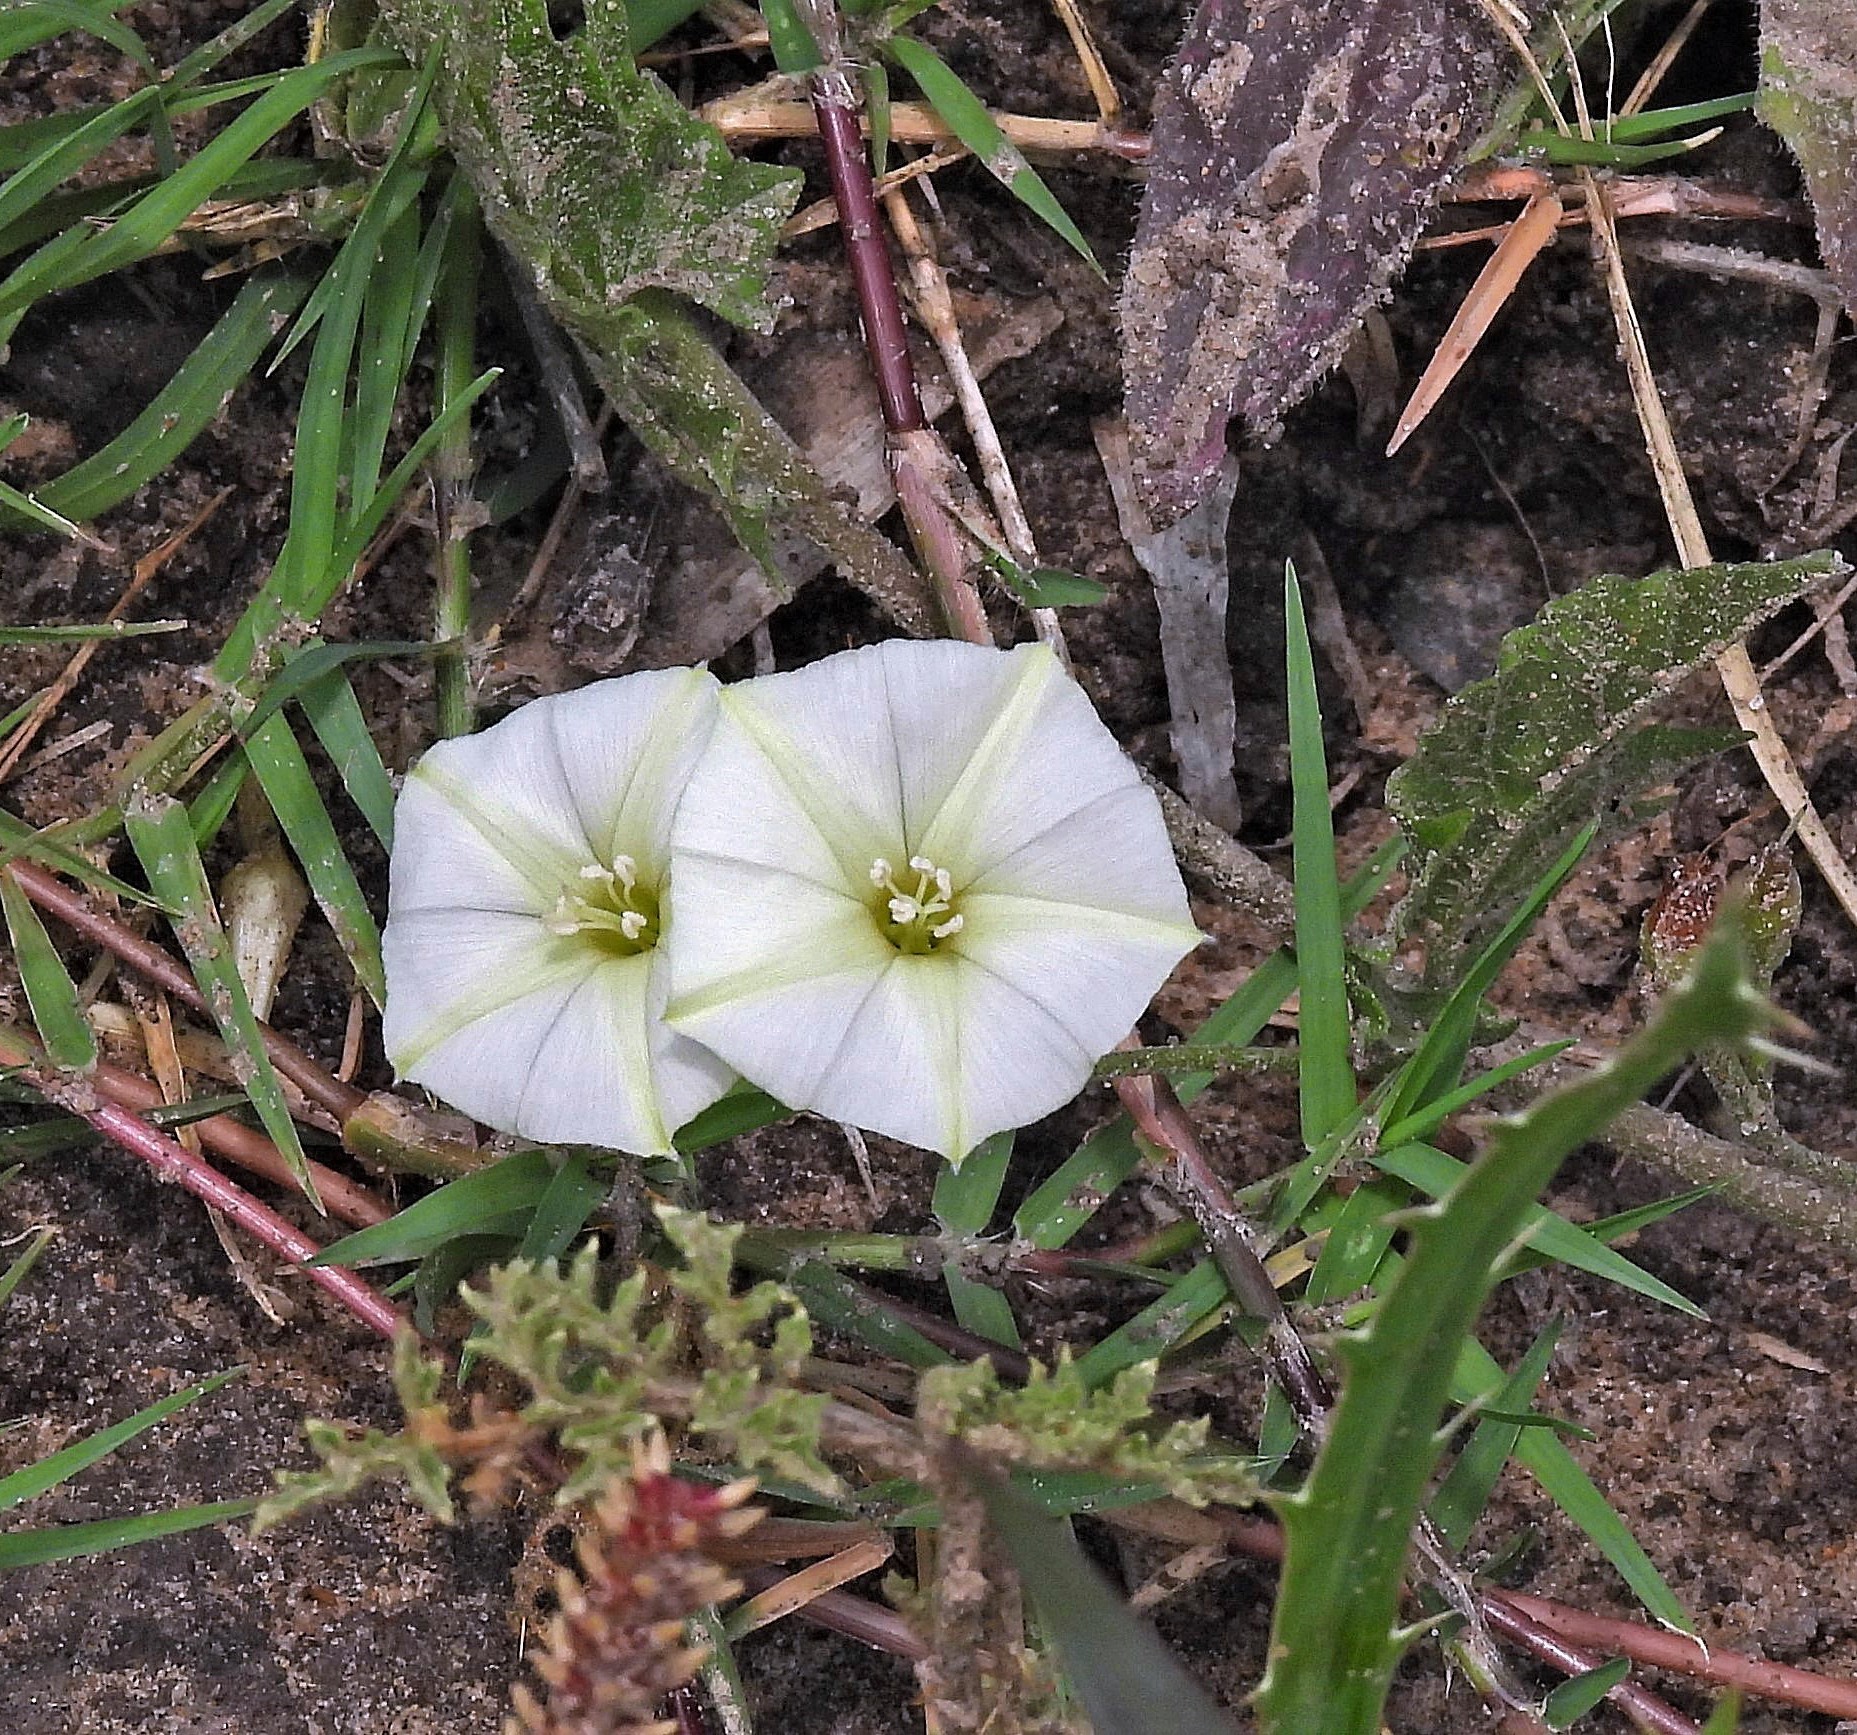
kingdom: Plantae
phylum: Tracheophyta
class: Magnoliopsida
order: Solanales
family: Convolvulaceae
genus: Convolvulus
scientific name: Convolvulus crenatifolius
